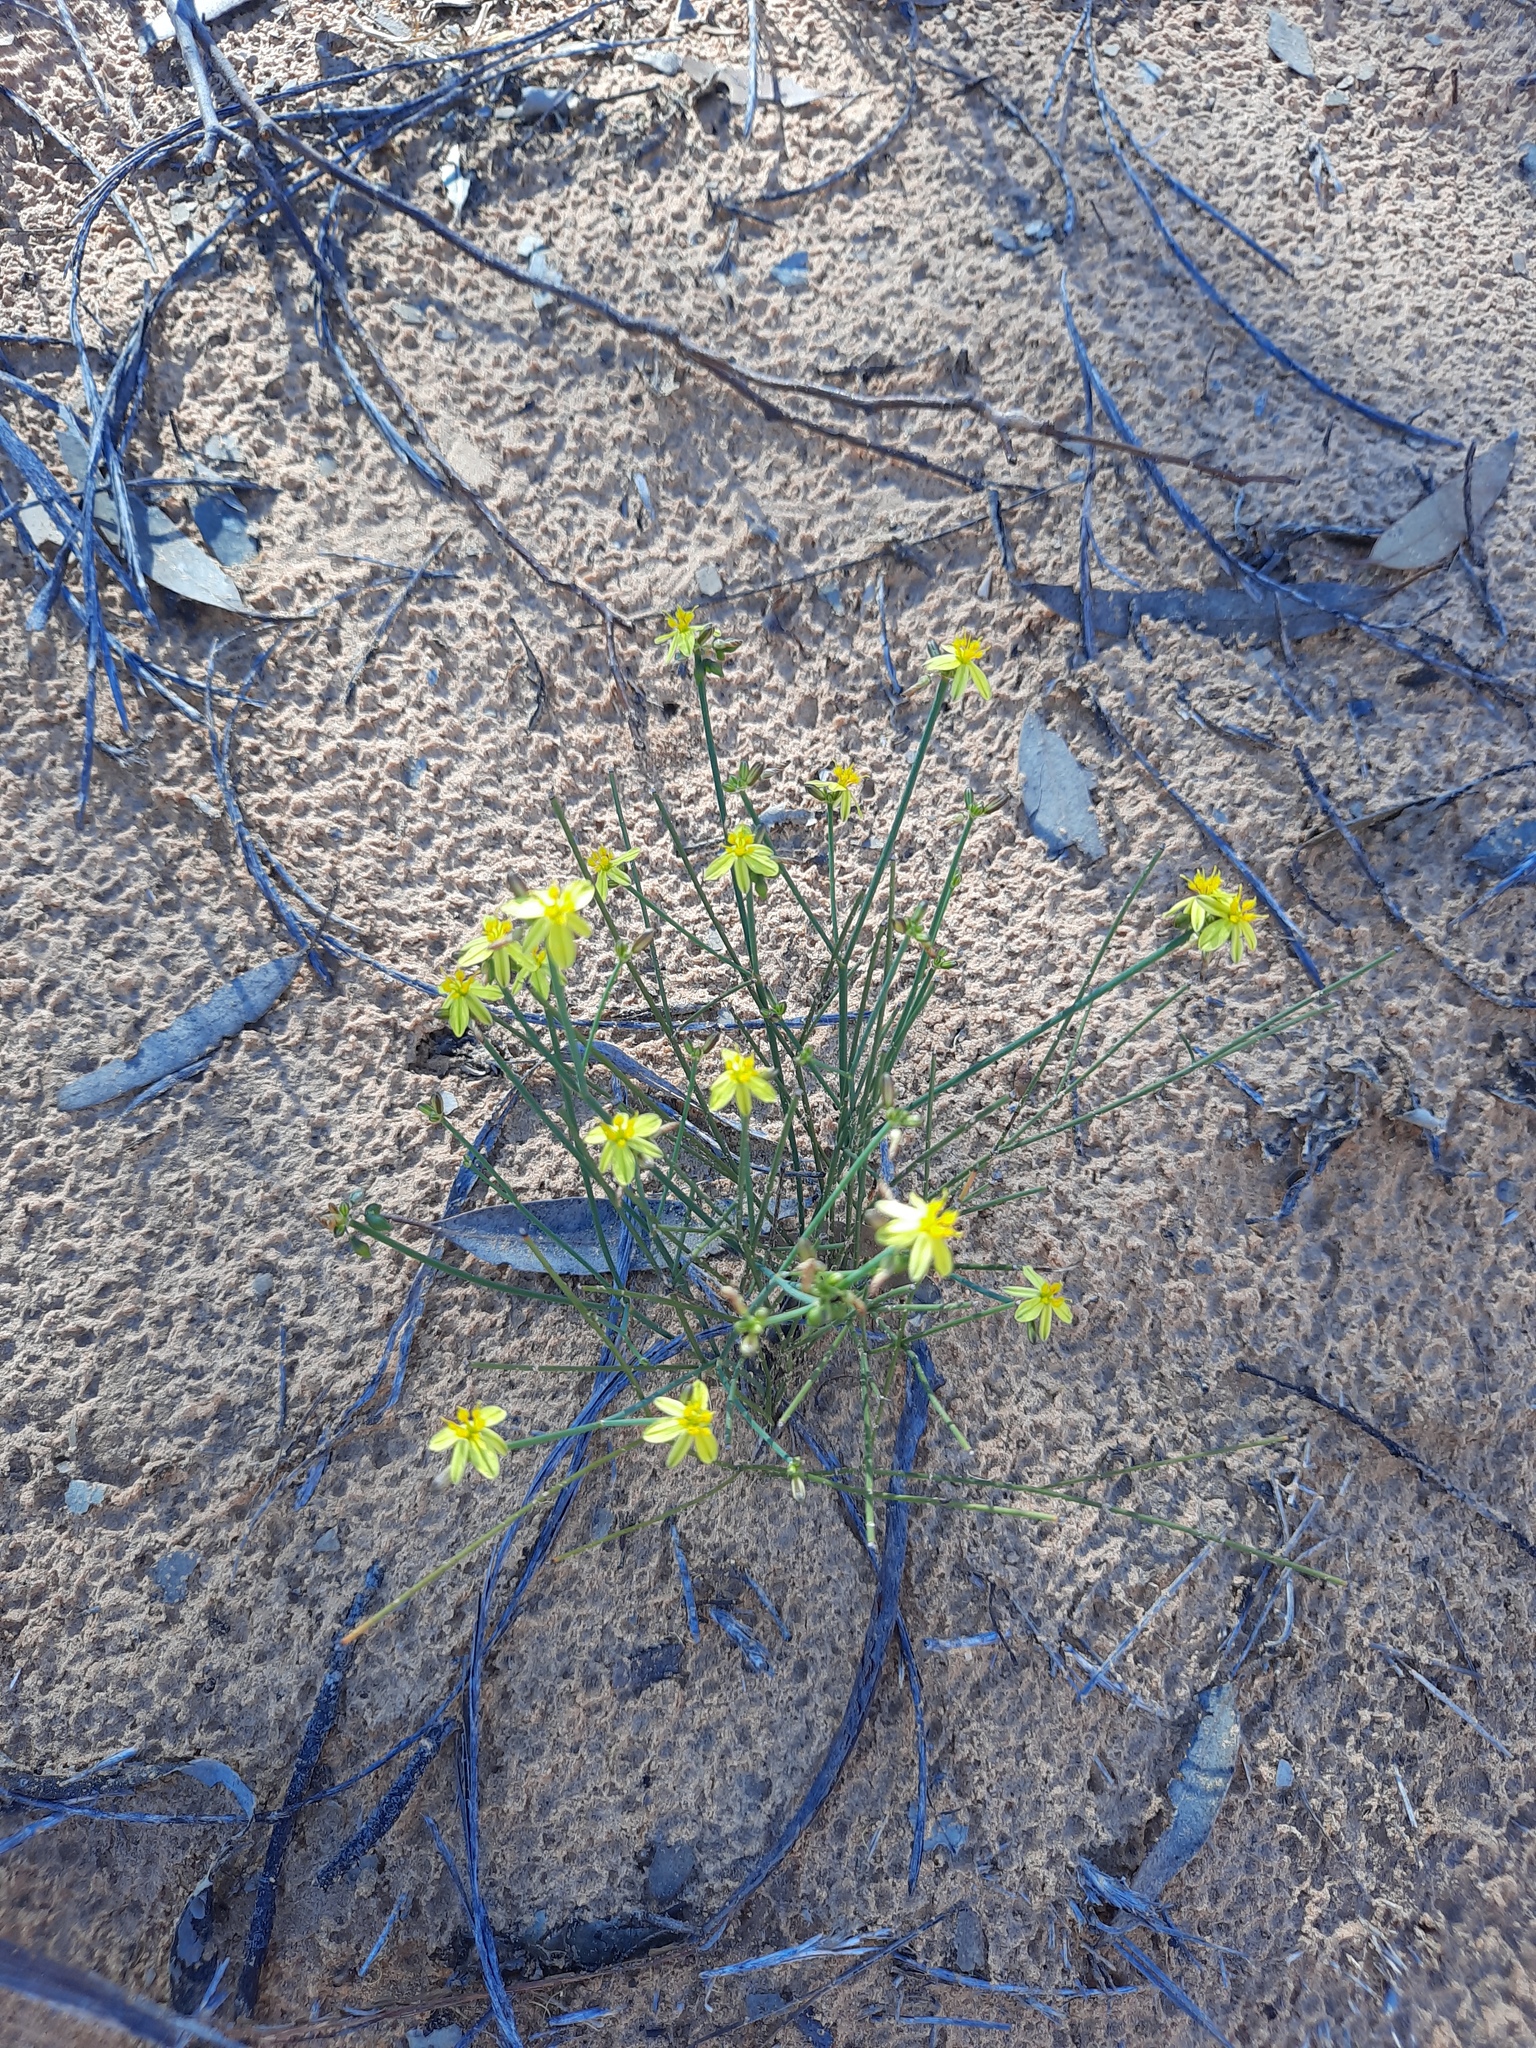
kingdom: Plantae
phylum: Tracheophyta
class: Liliopsida
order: Asparagales
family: Asphodelaceae
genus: Tricoryne
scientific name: Tricoryne tenella
